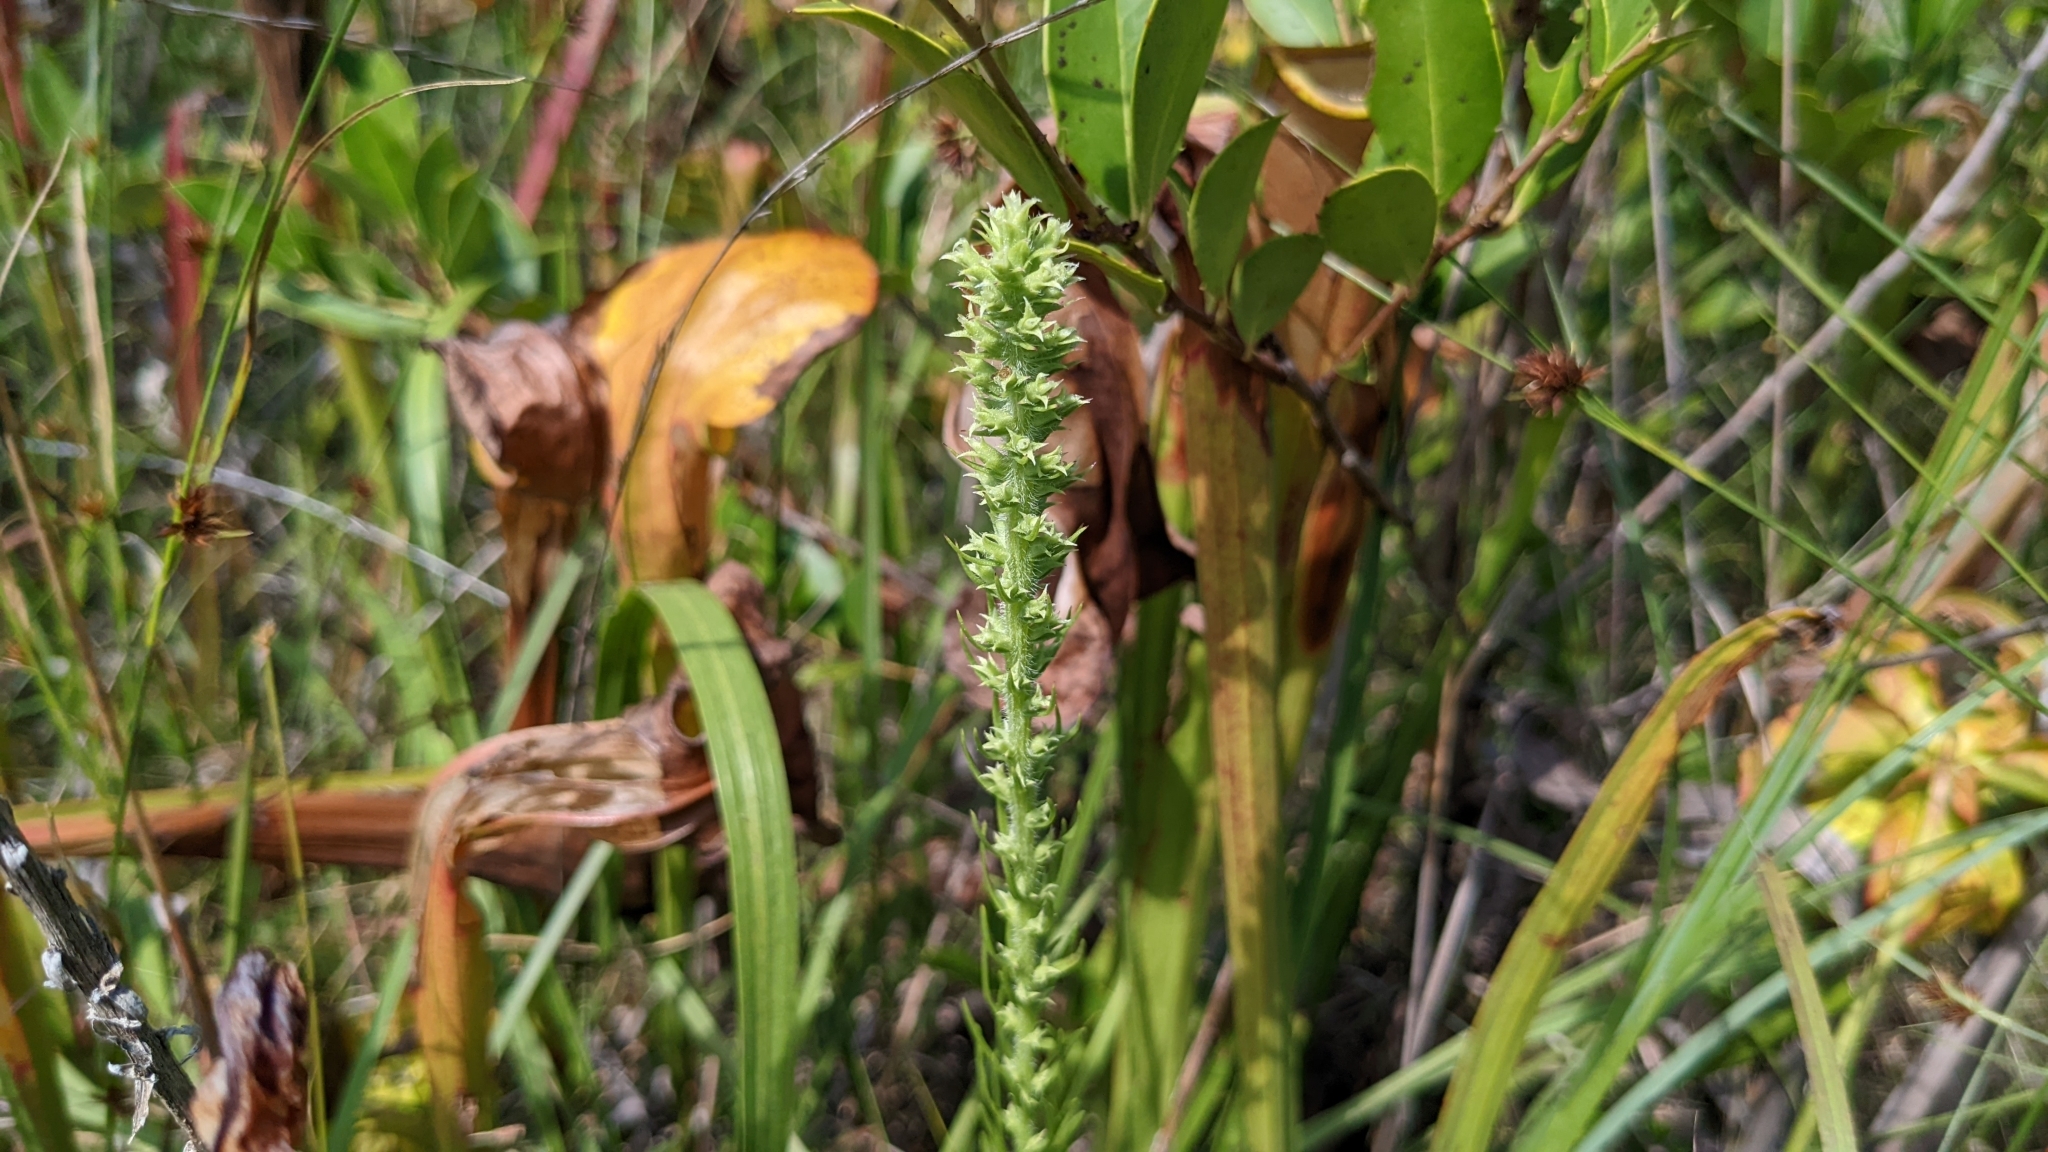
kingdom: Plantae
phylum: Tracheophyta
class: Magnoliopsida
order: Asterales
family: Asteraceae
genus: Liatris
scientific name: Liatris pycnostachya
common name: Cattail gayfeather
